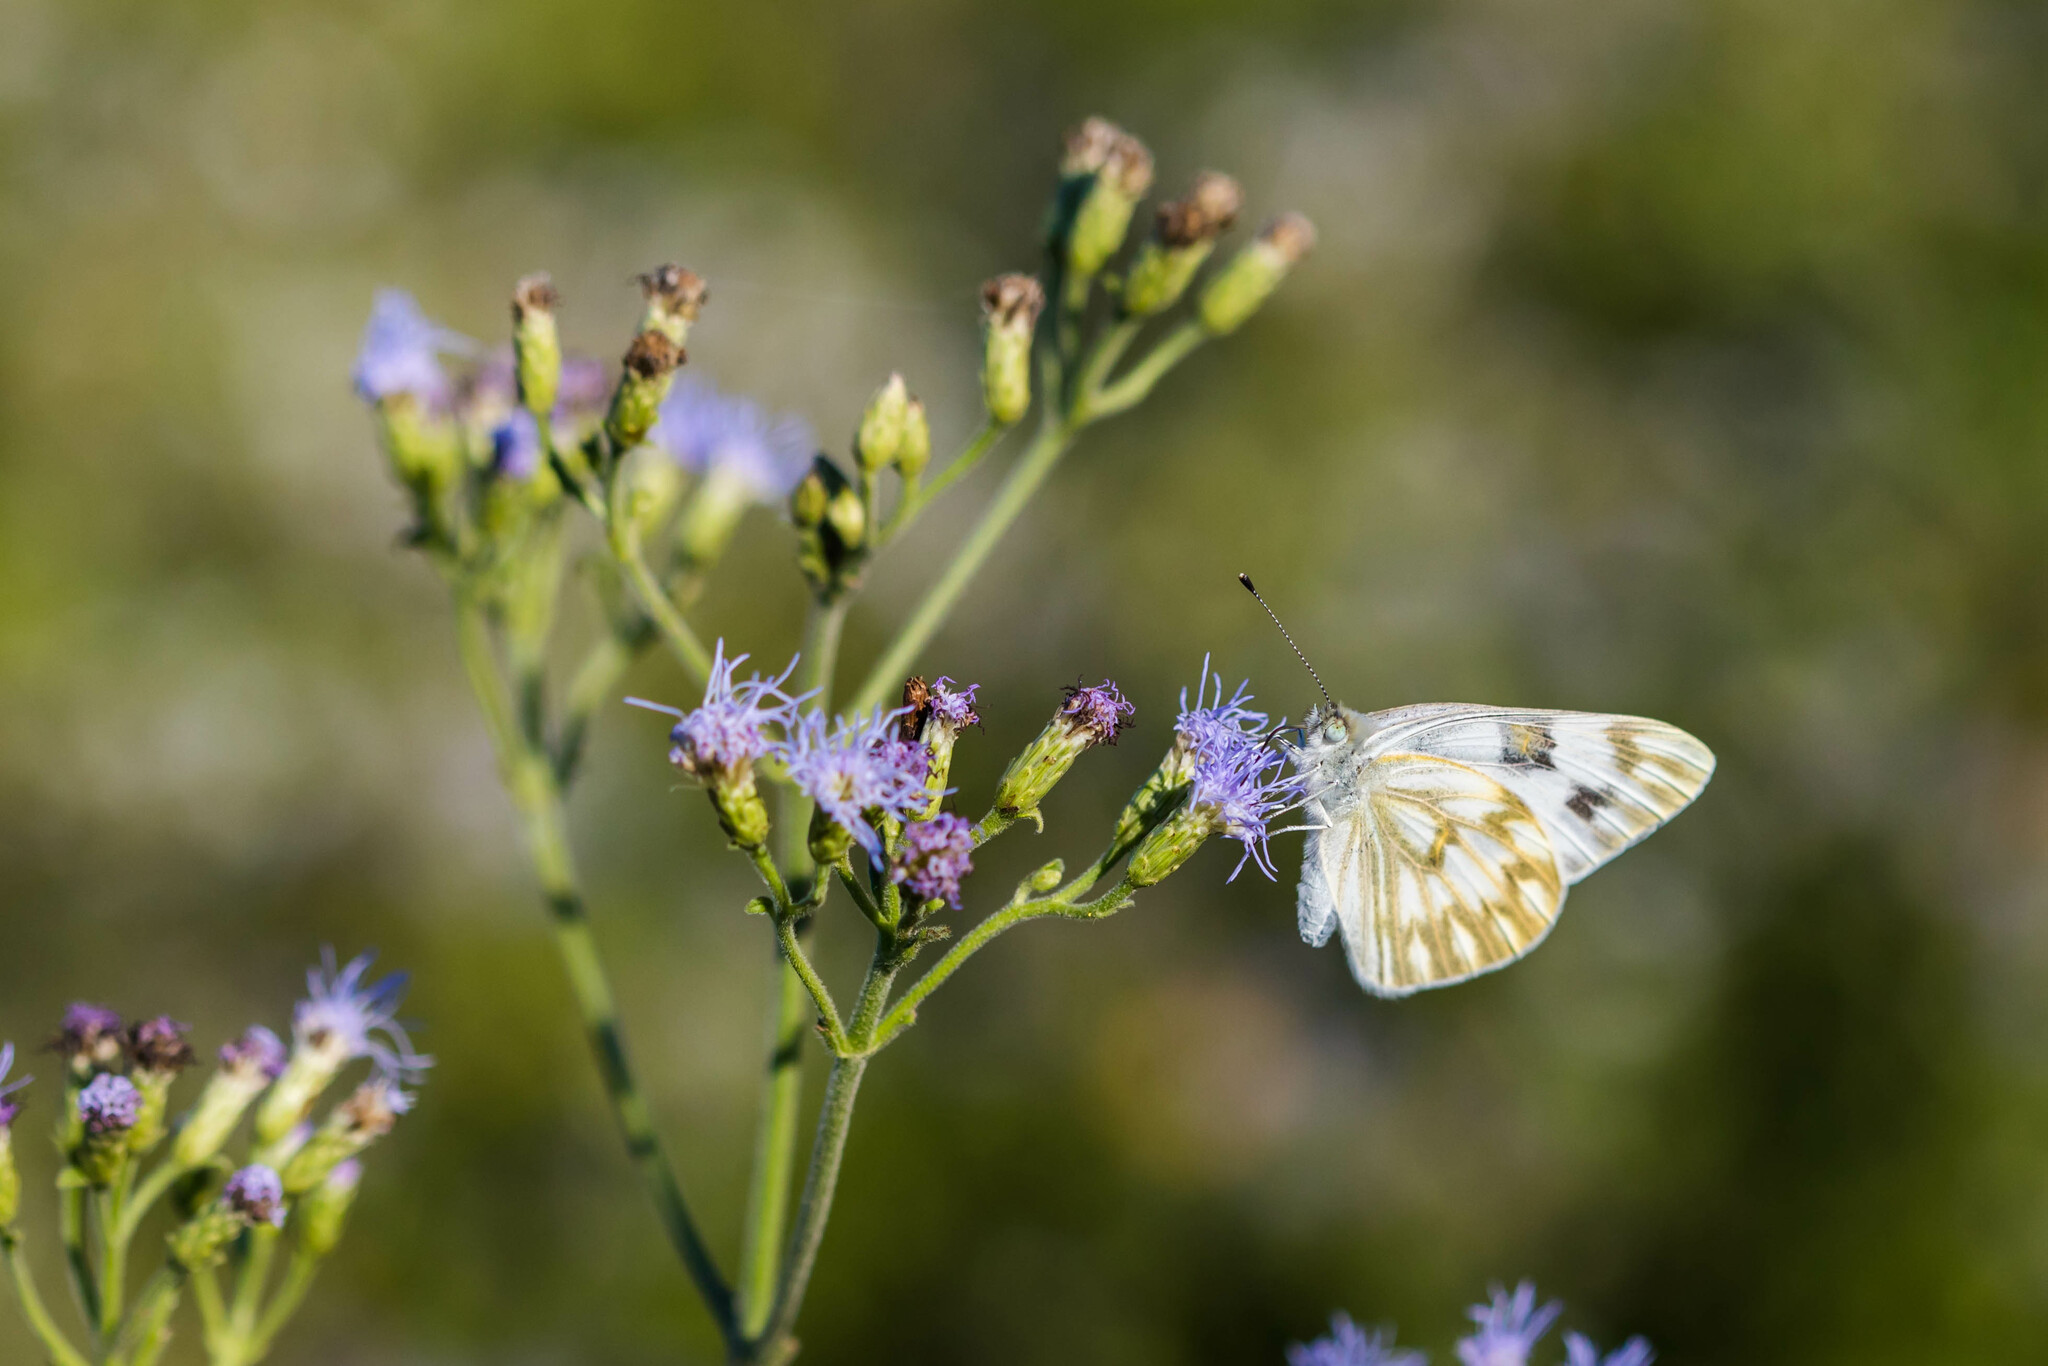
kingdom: Animalia
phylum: Arthropoda
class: Insecta
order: Lepidoptera
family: Pieridae
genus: Pontia
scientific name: Pontia protodice
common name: Checkered white
